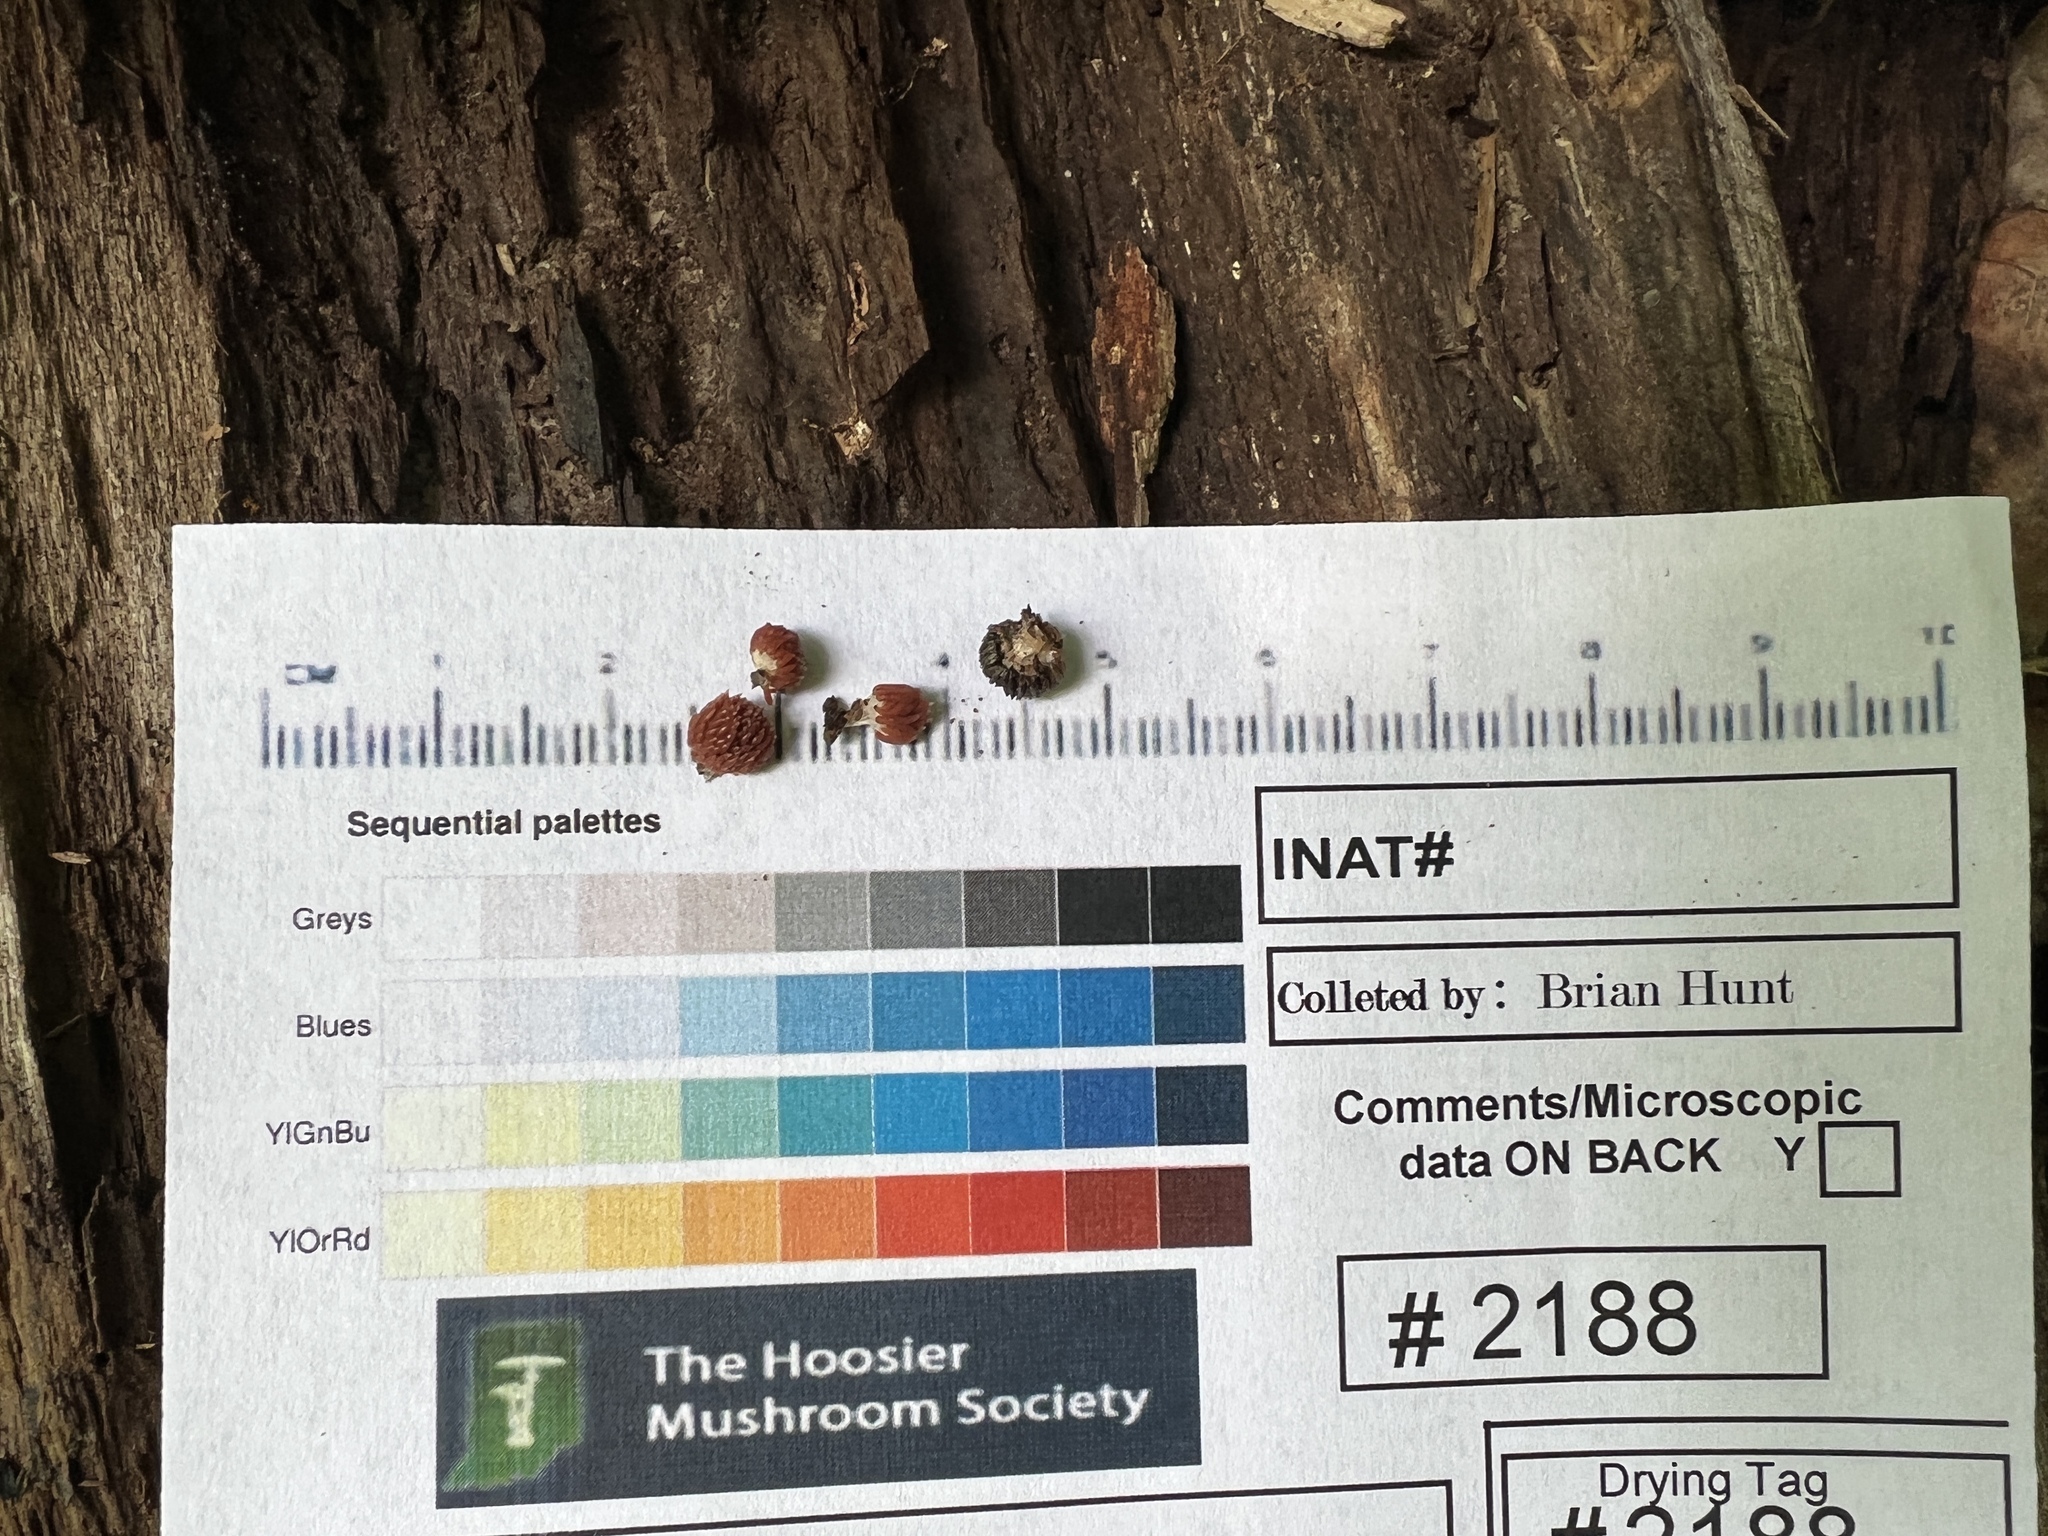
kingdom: Protozoa
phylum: Mycetozoa
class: Myxomycetes
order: Cribrariales
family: Tubiferaceae
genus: Tubifera
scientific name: Tubifera corymbosa
